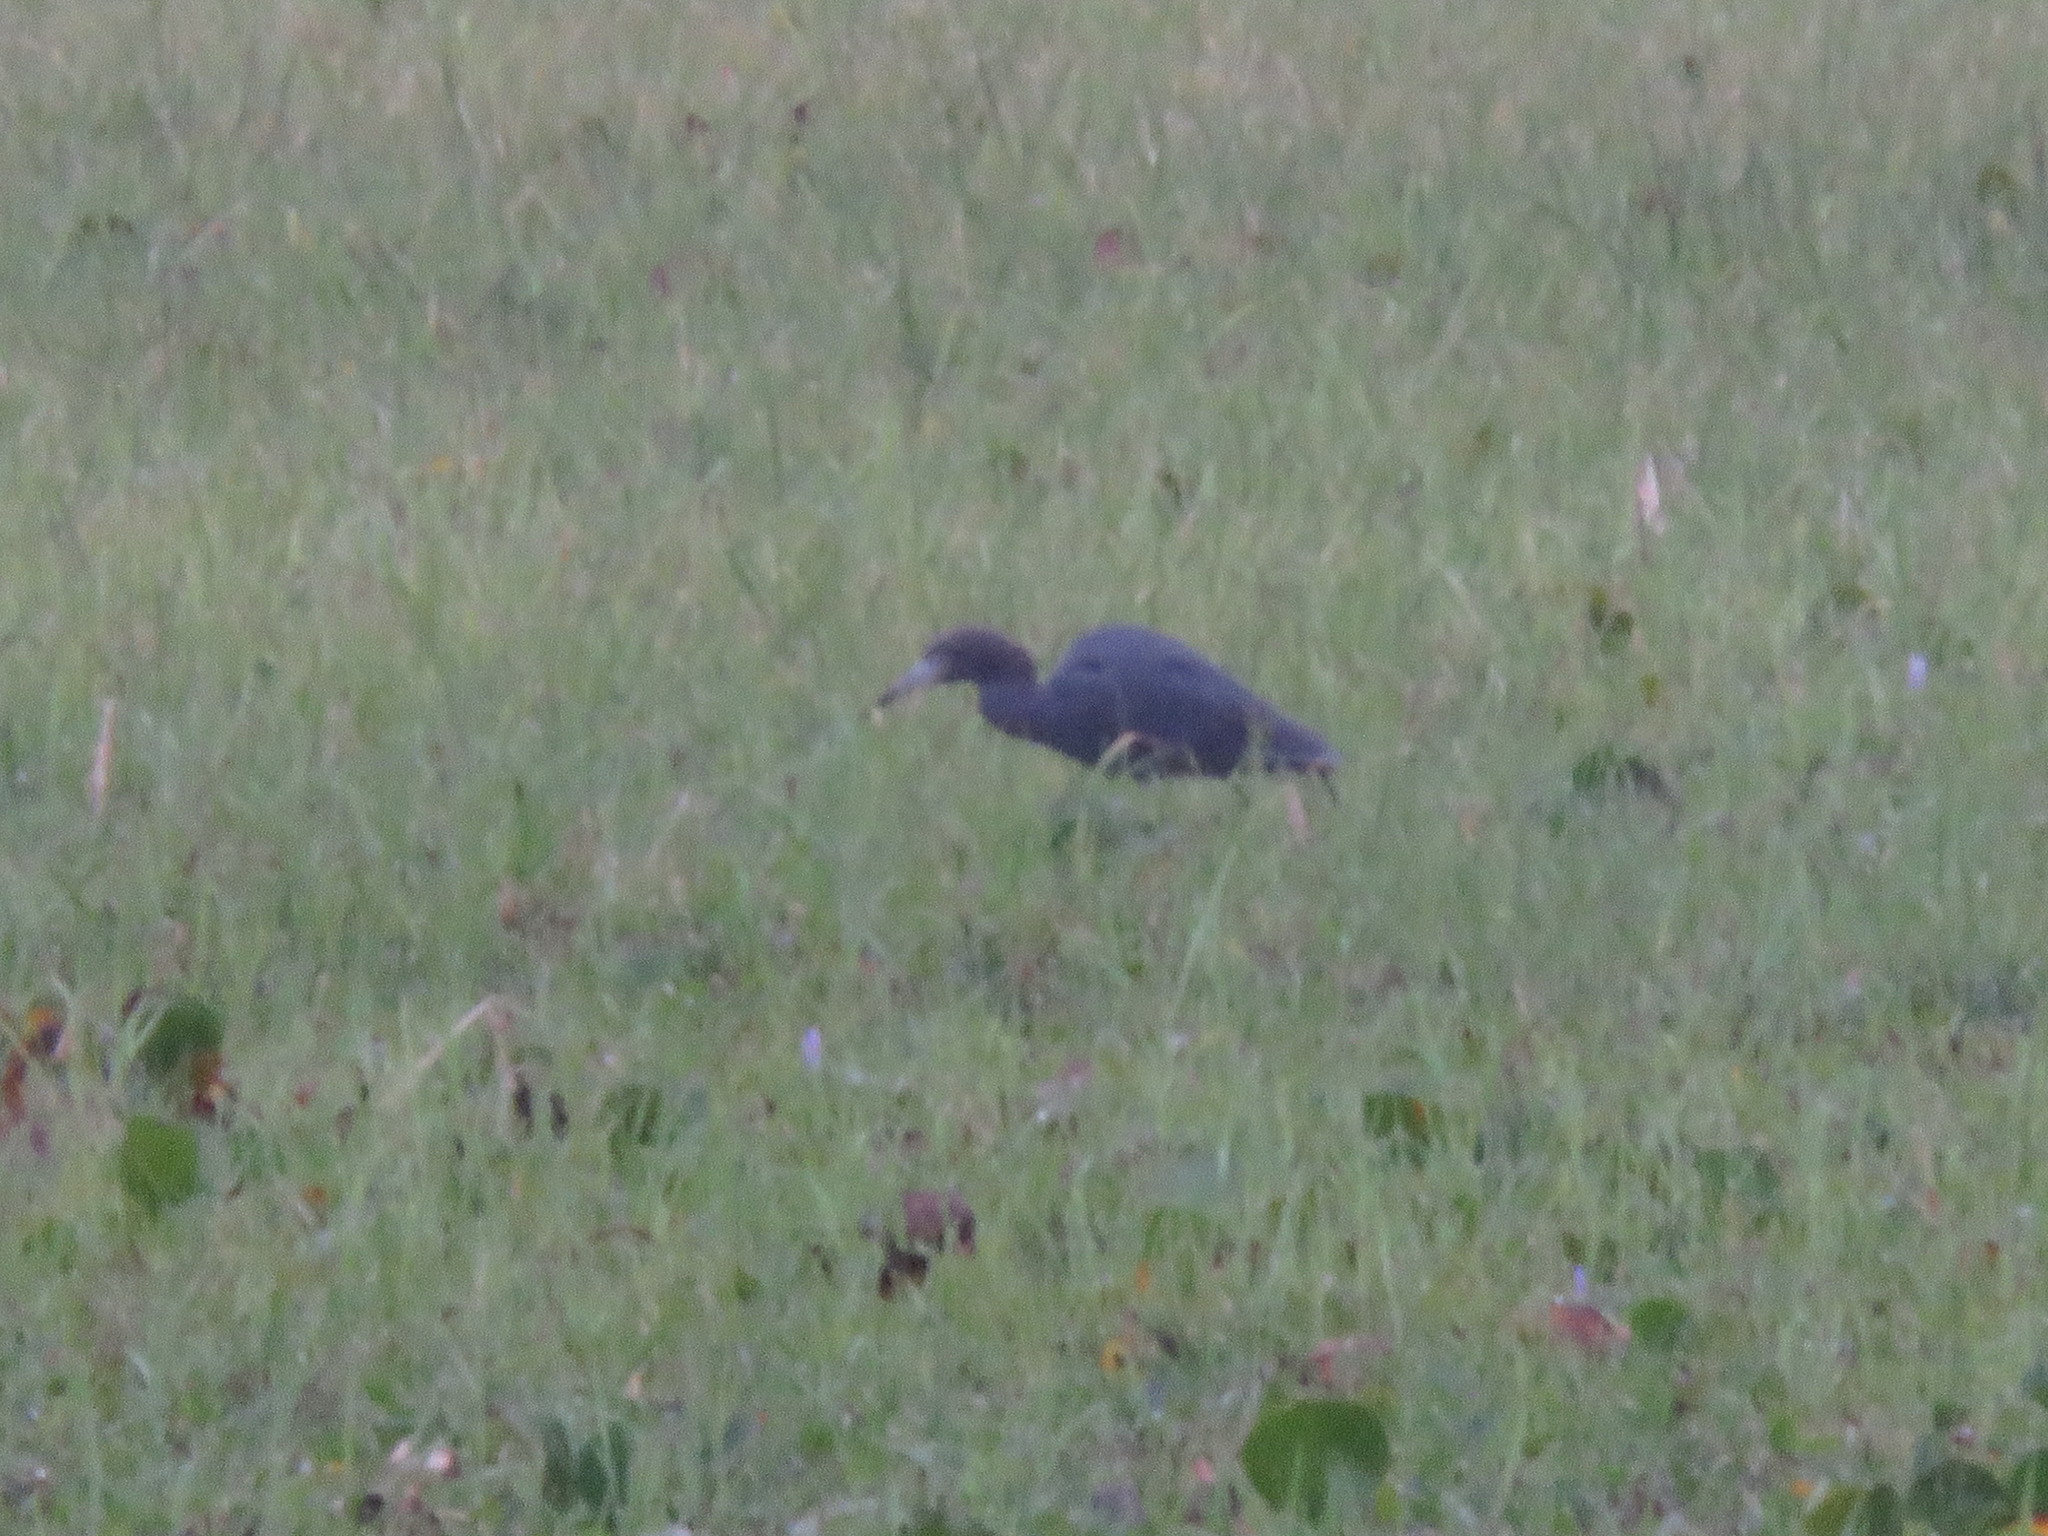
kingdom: Animalia
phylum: Chordata
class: Aves
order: Pelecaniformes
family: Ardeidae
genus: Egretta
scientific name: Egretta caerulea
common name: Little blue heron
